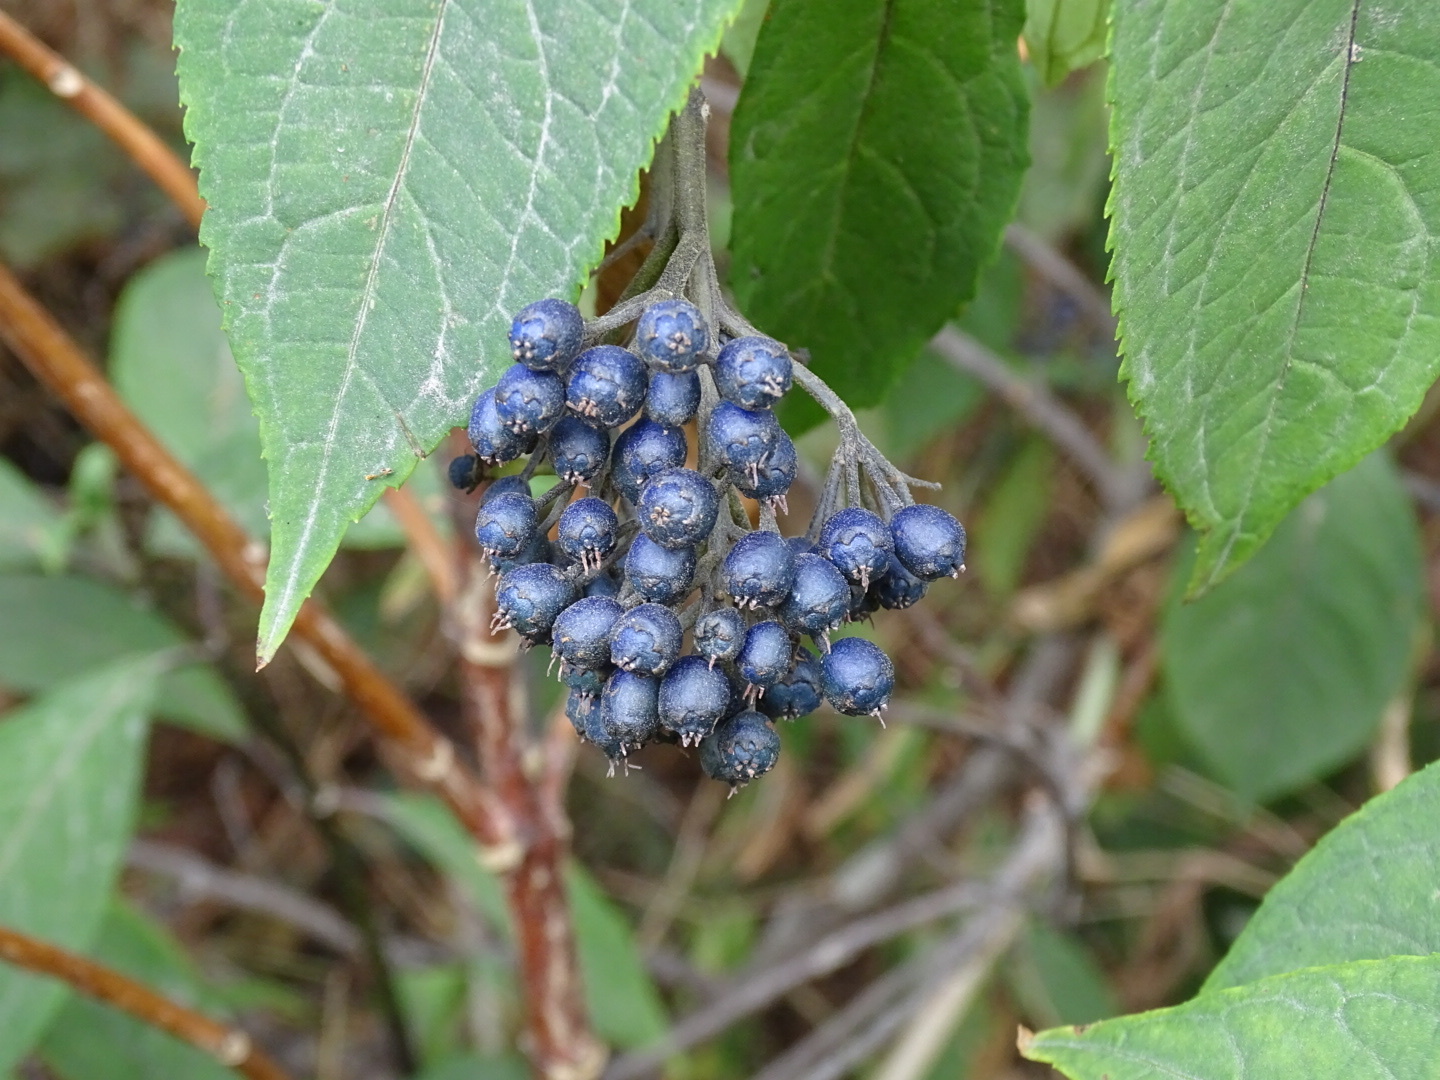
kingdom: Plantae
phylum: Tracheophyta
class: Magnoliopsida
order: Cornales
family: Hydrangeaceae
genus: Hydrangea
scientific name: Hydrangea febrifuga
